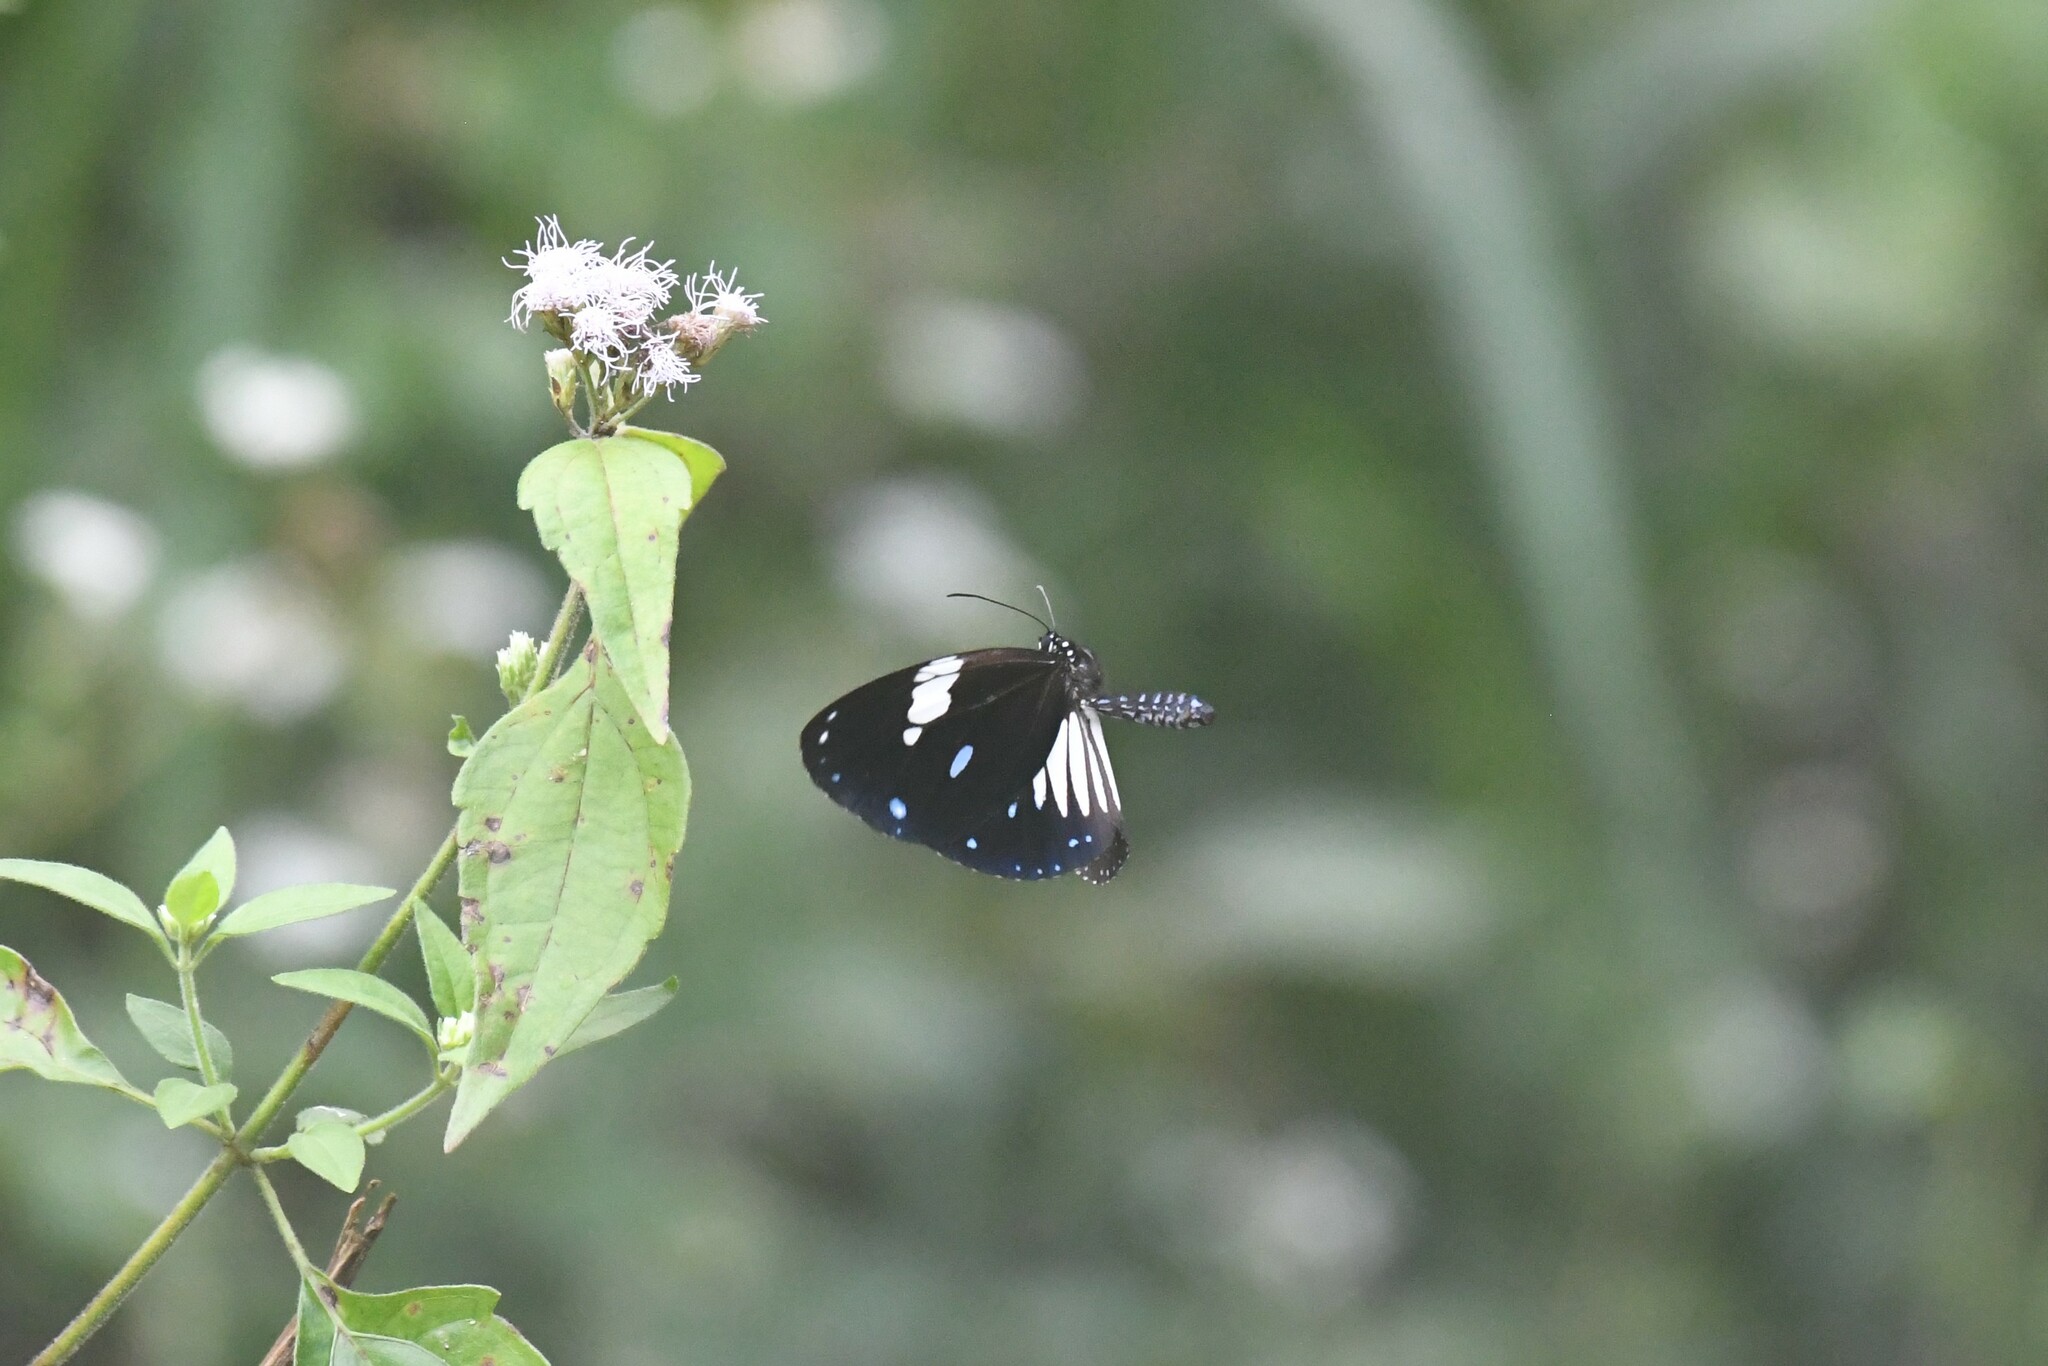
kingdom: Animalia
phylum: Arthropoda
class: Insecta
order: Lepidoptera
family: Nymphalidae
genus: Euploea
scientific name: Euploea radamanthus
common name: Magpie crow butterfly
